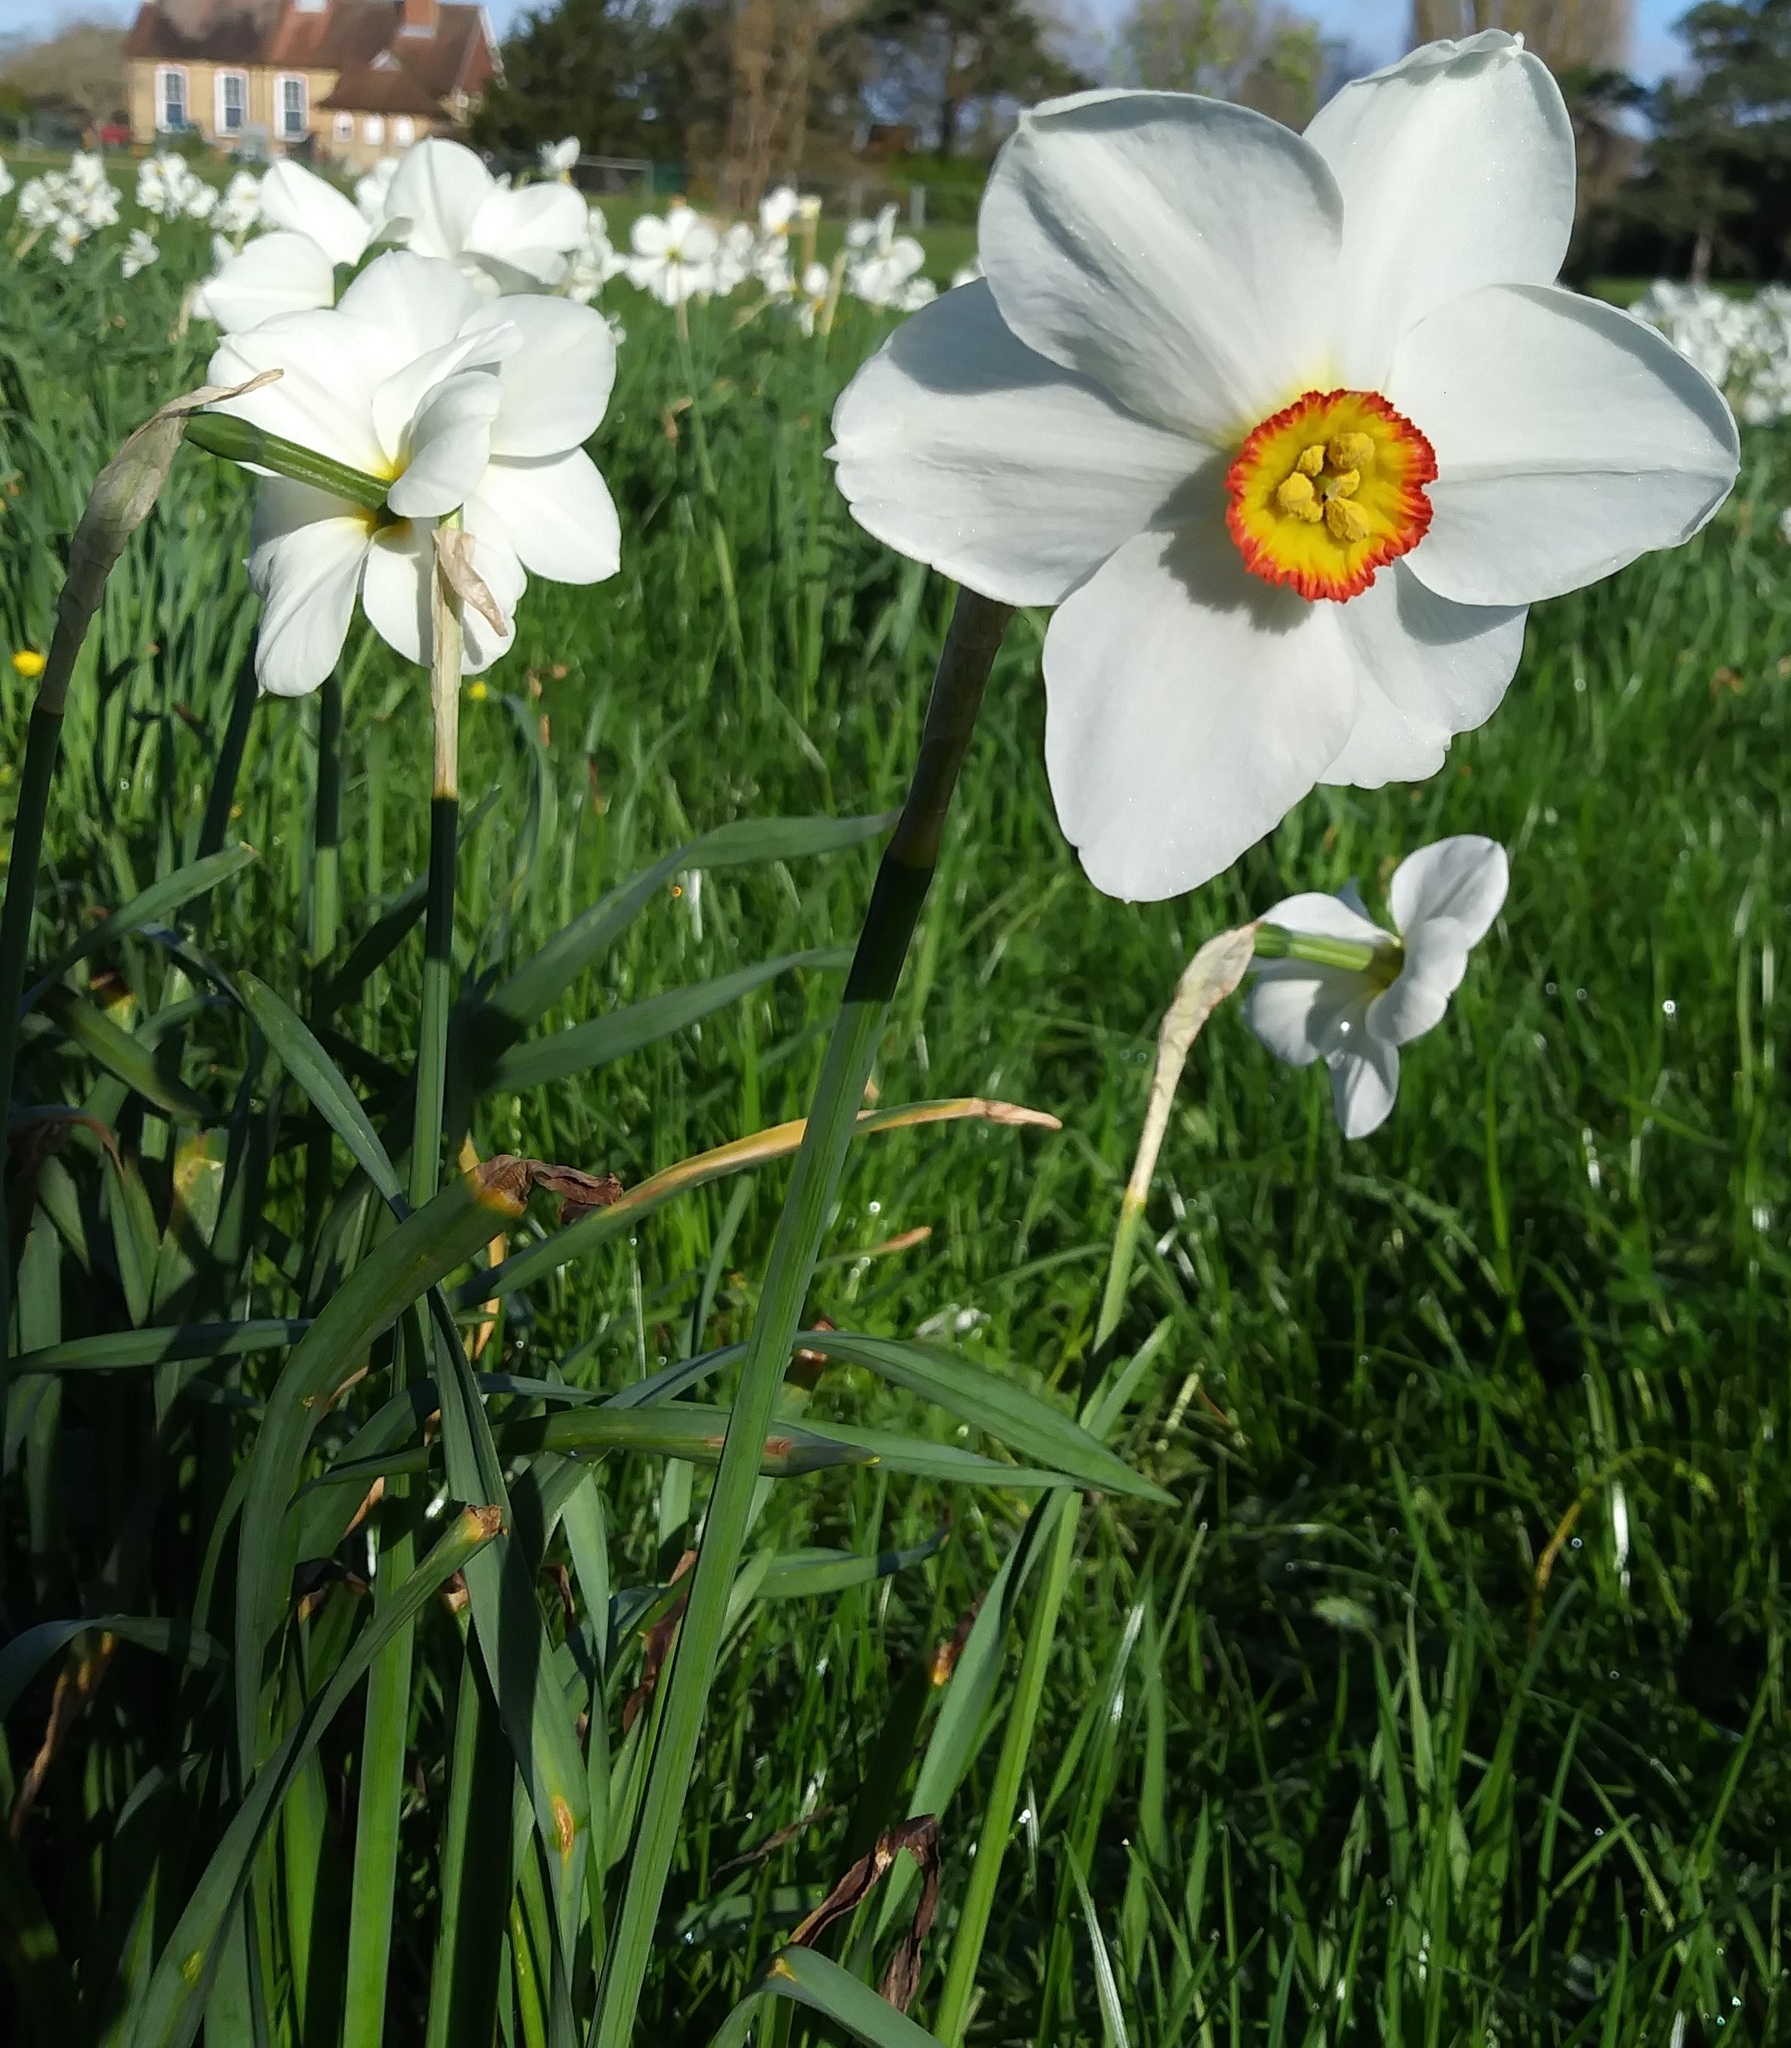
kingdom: Plantae
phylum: Tracheophyta
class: Liliopsida
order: Asparagales
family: Amaryllidaceae
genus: Narcissus
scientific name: Narcissus poeticus
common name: Pheasant's-eye daffodil
